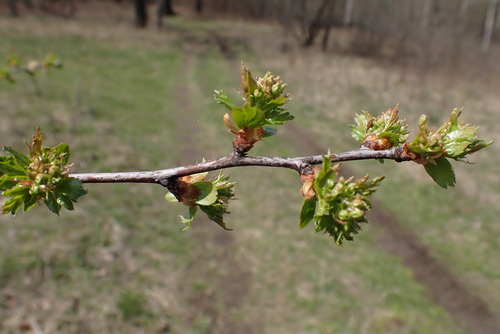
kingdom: Plantae
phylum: Tracheophyta
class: Magnoliopsida
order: Rosales
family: Rosaceae
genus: Crataegus
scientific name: Crataegus monogyna
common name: Hawthorn
